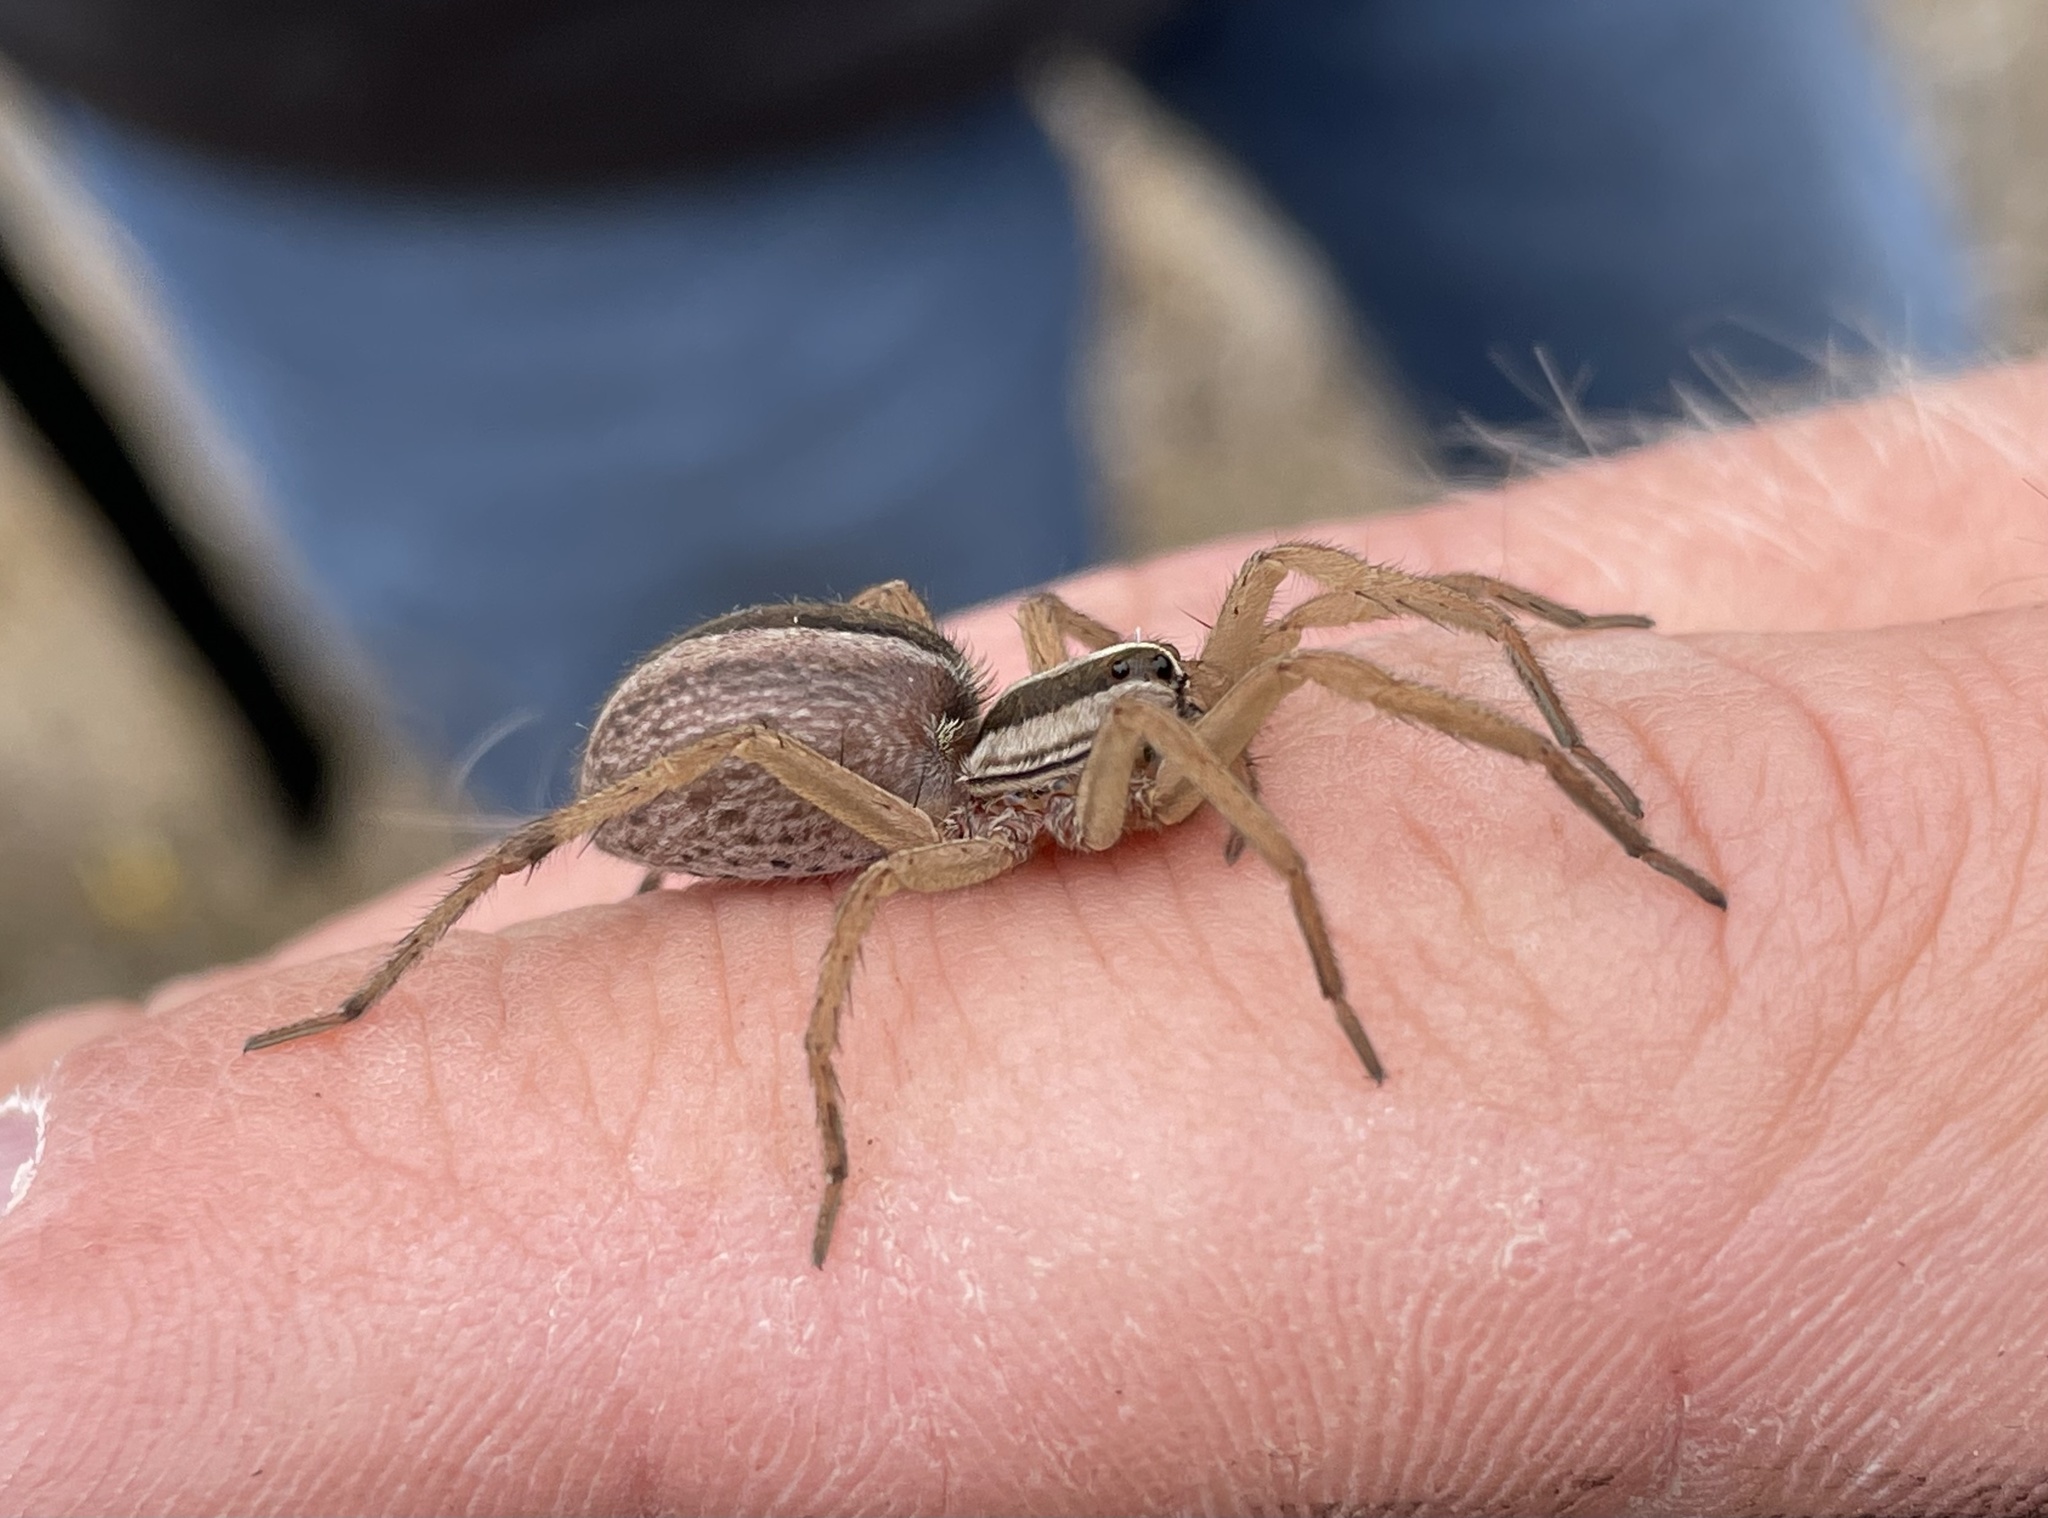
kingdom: Animalia
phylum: Arthropoda
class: Arachnida
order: Araneae
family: Lycosidae
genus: Rabidosa
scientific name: Rabidosa punctulata
